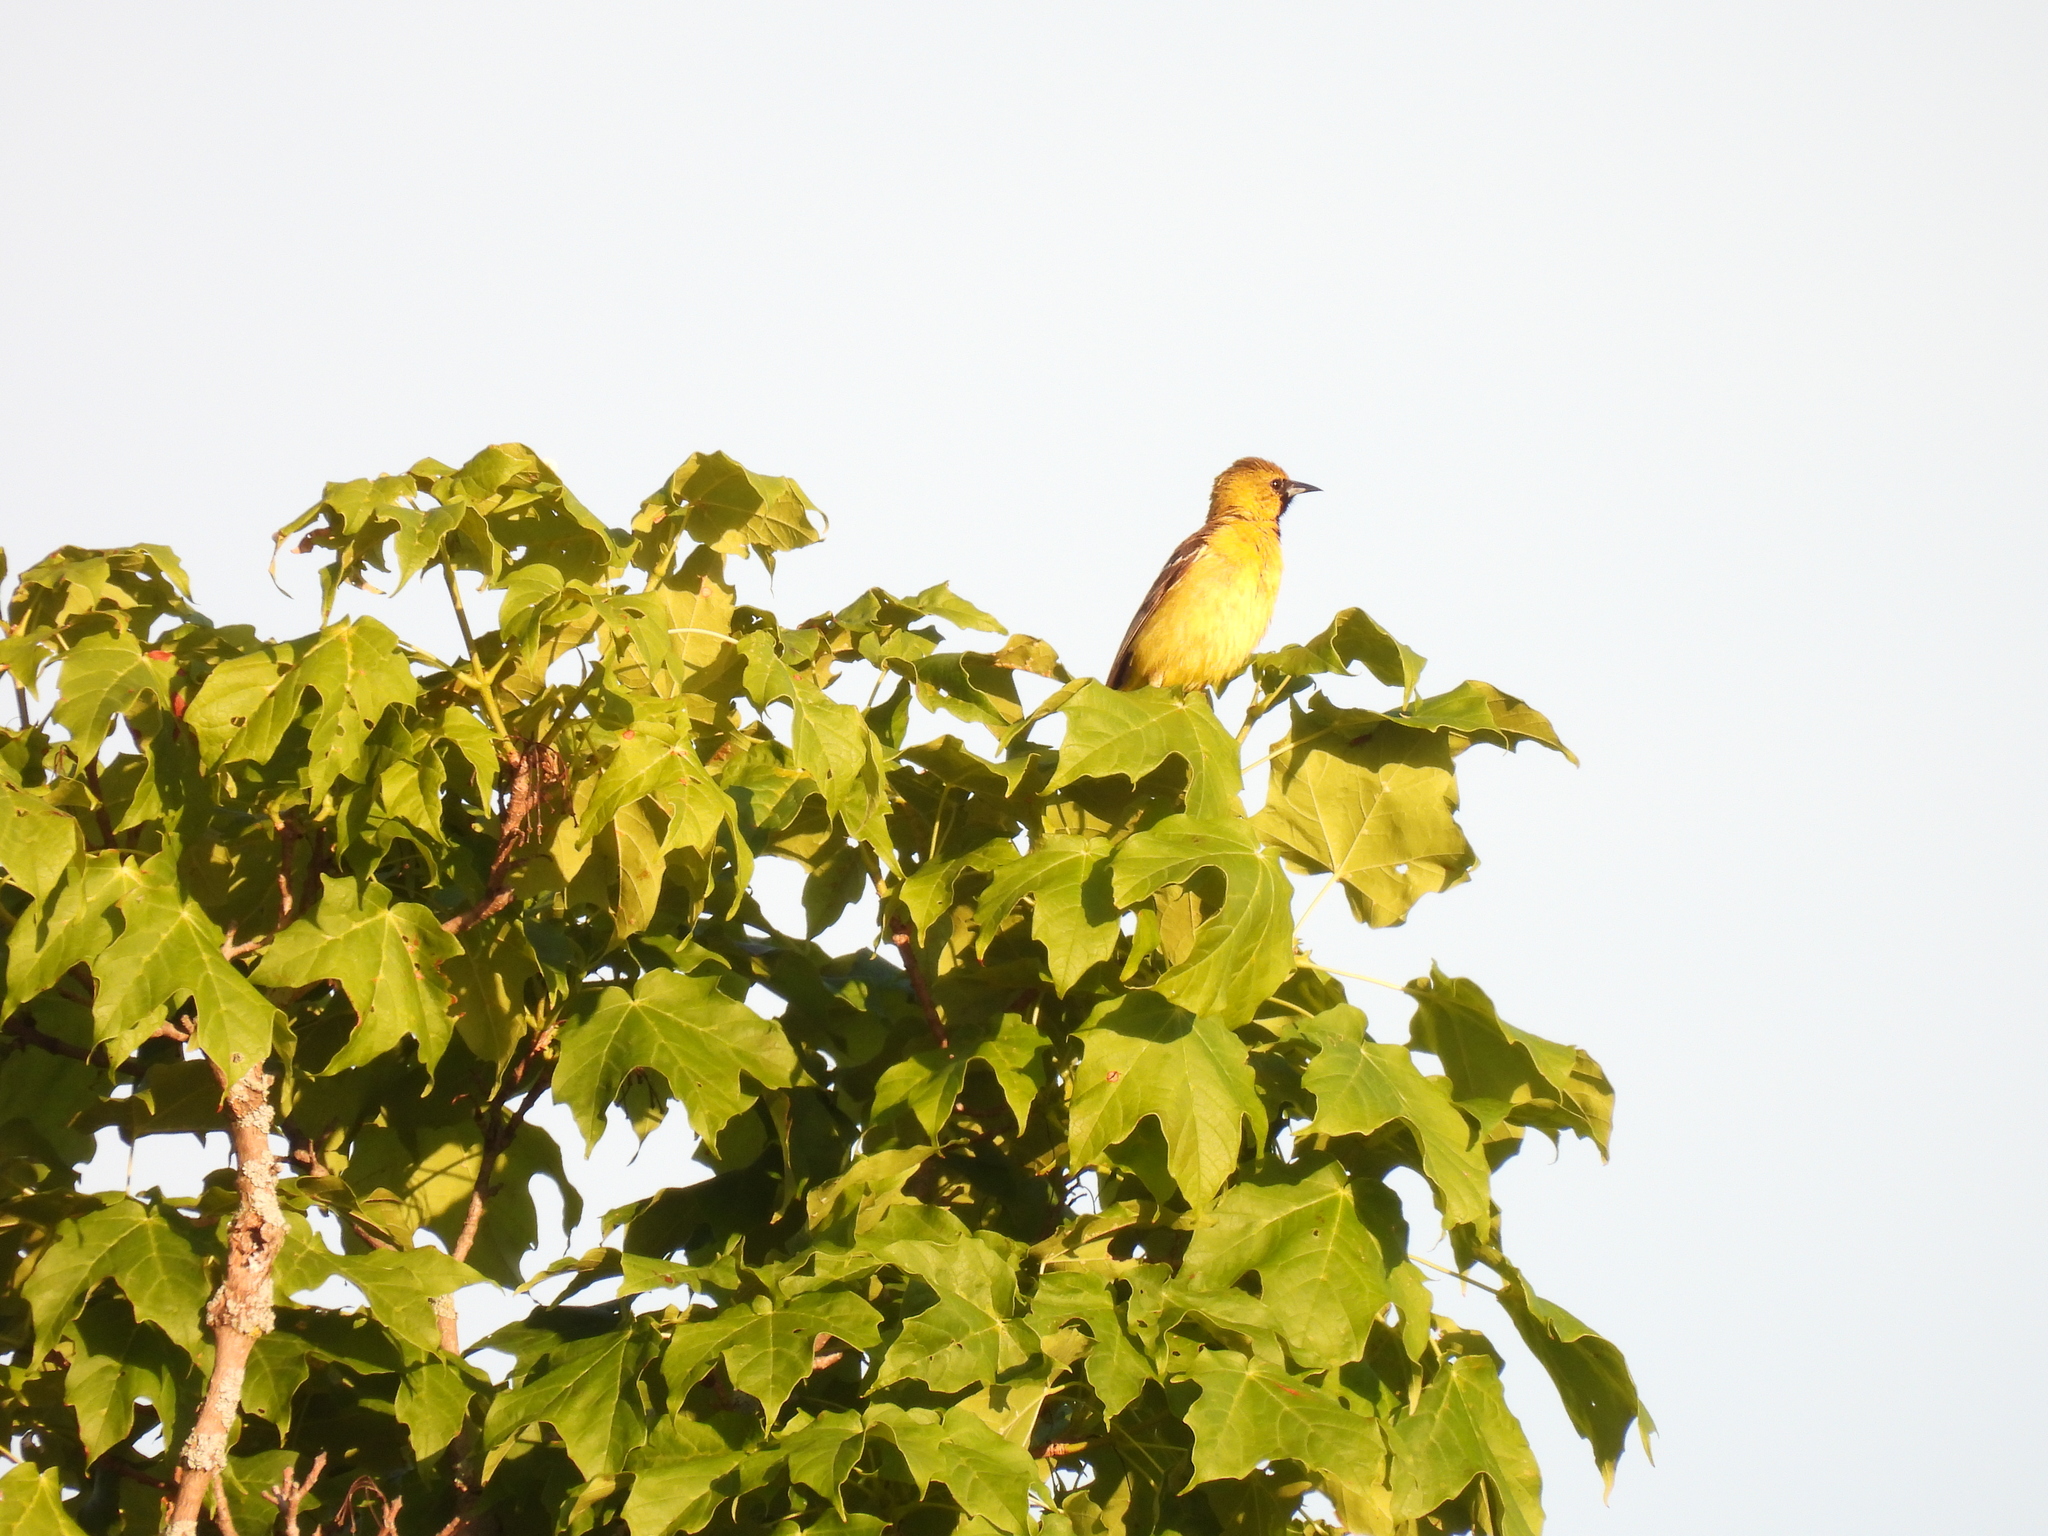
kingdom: Animalia
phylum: Chordata
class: Aves
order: Passeriformes
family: Icteridae
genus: Icterus
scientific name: Icterus spurius
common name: Orchard oriole
